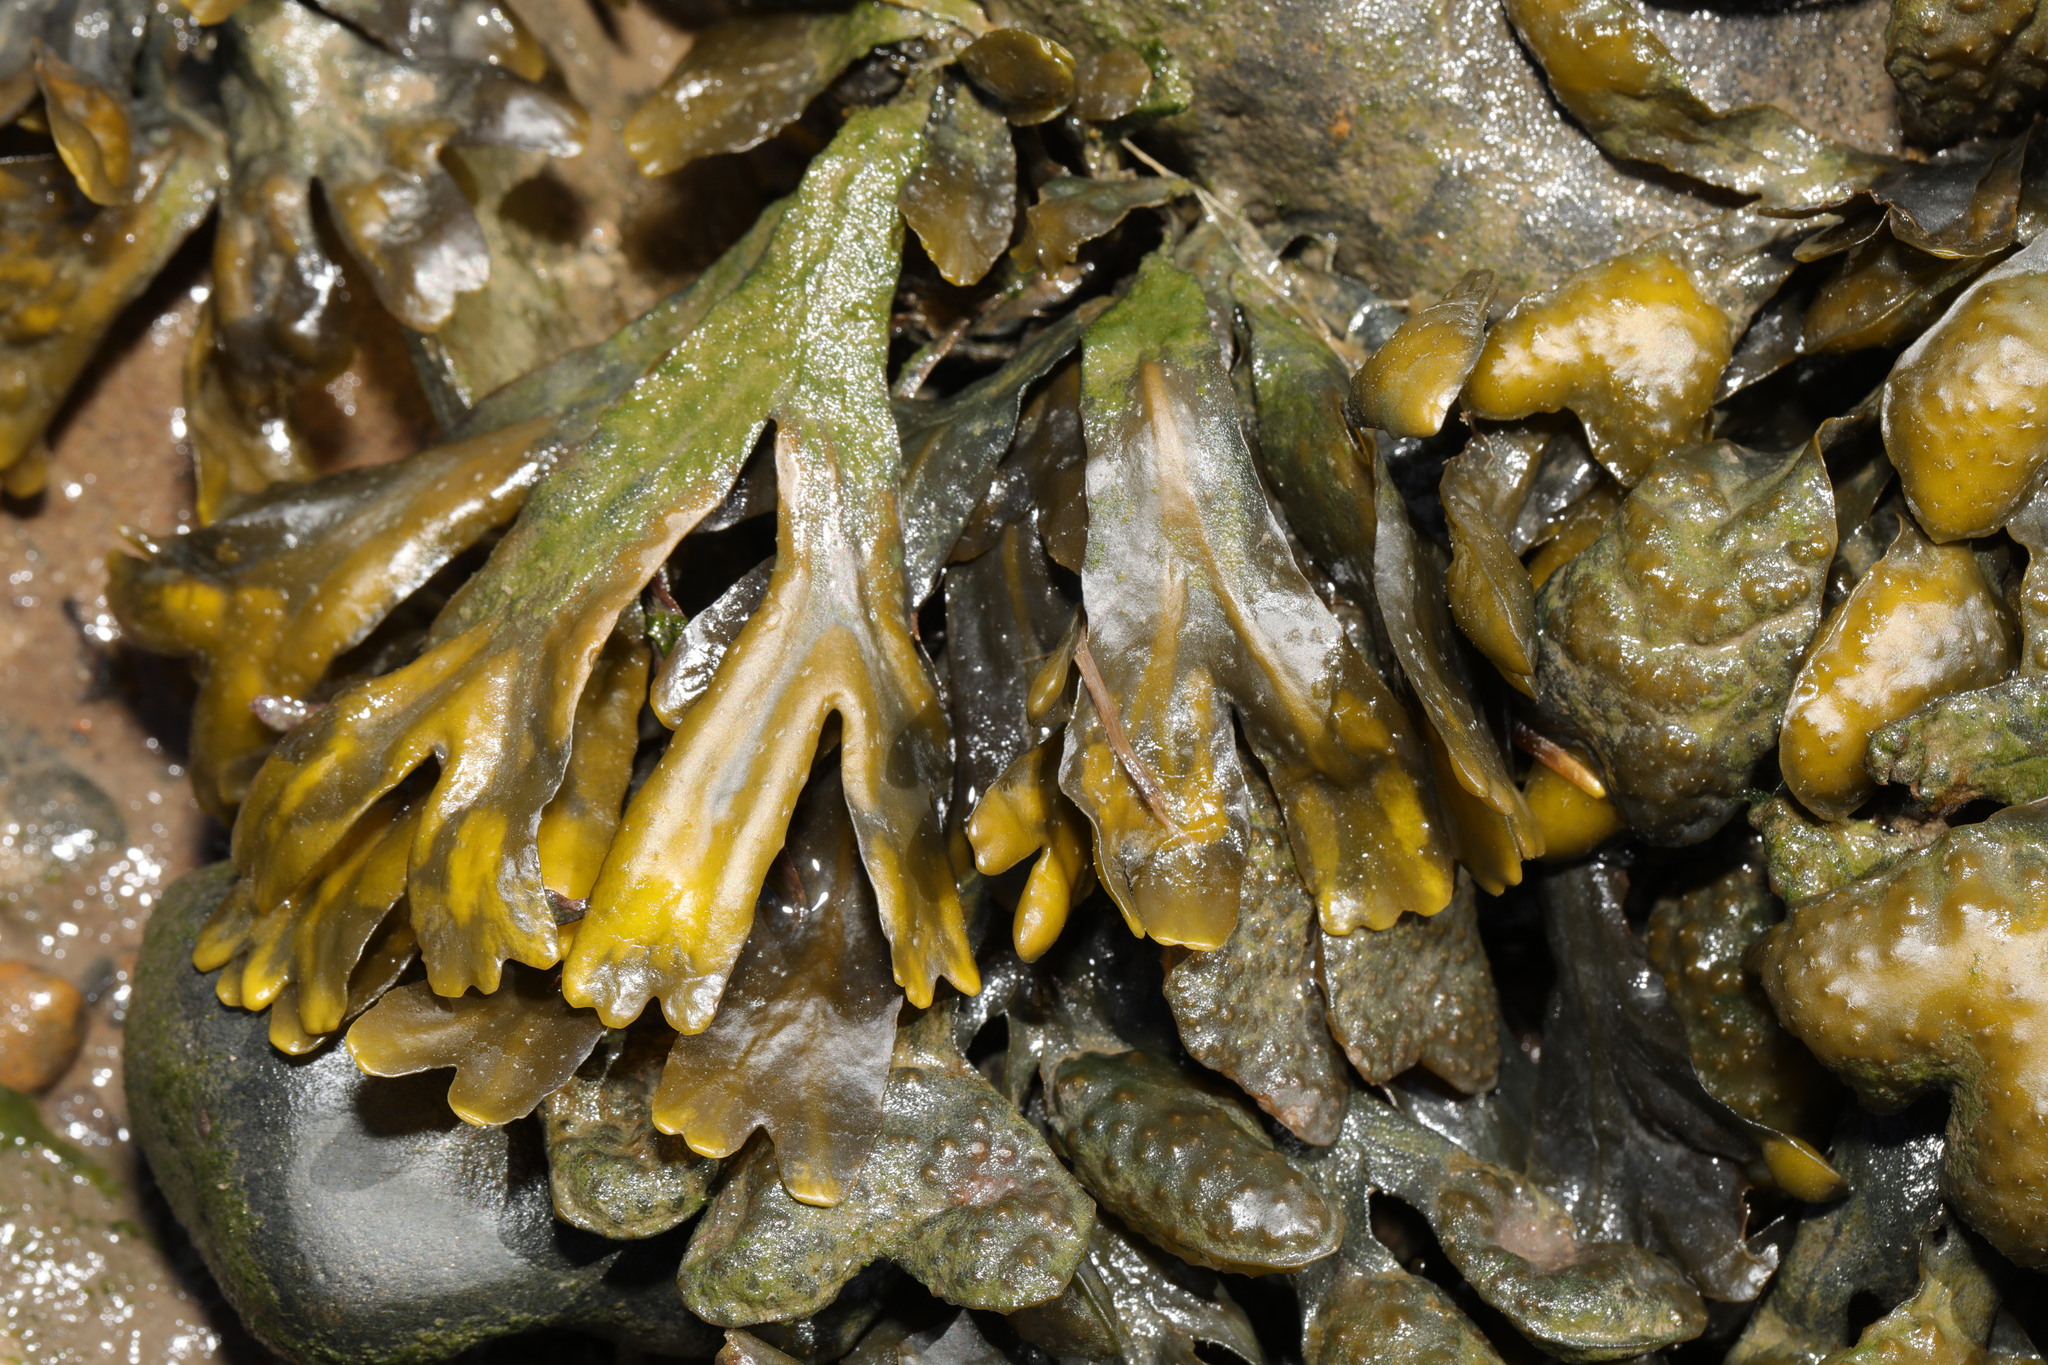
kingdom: Chromista
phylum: Ochrophyta
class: Phaeophyceae
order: Fucales
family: Fucaceae
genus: Fucus
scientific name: Fucus spiralis
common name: Spiral wrack
